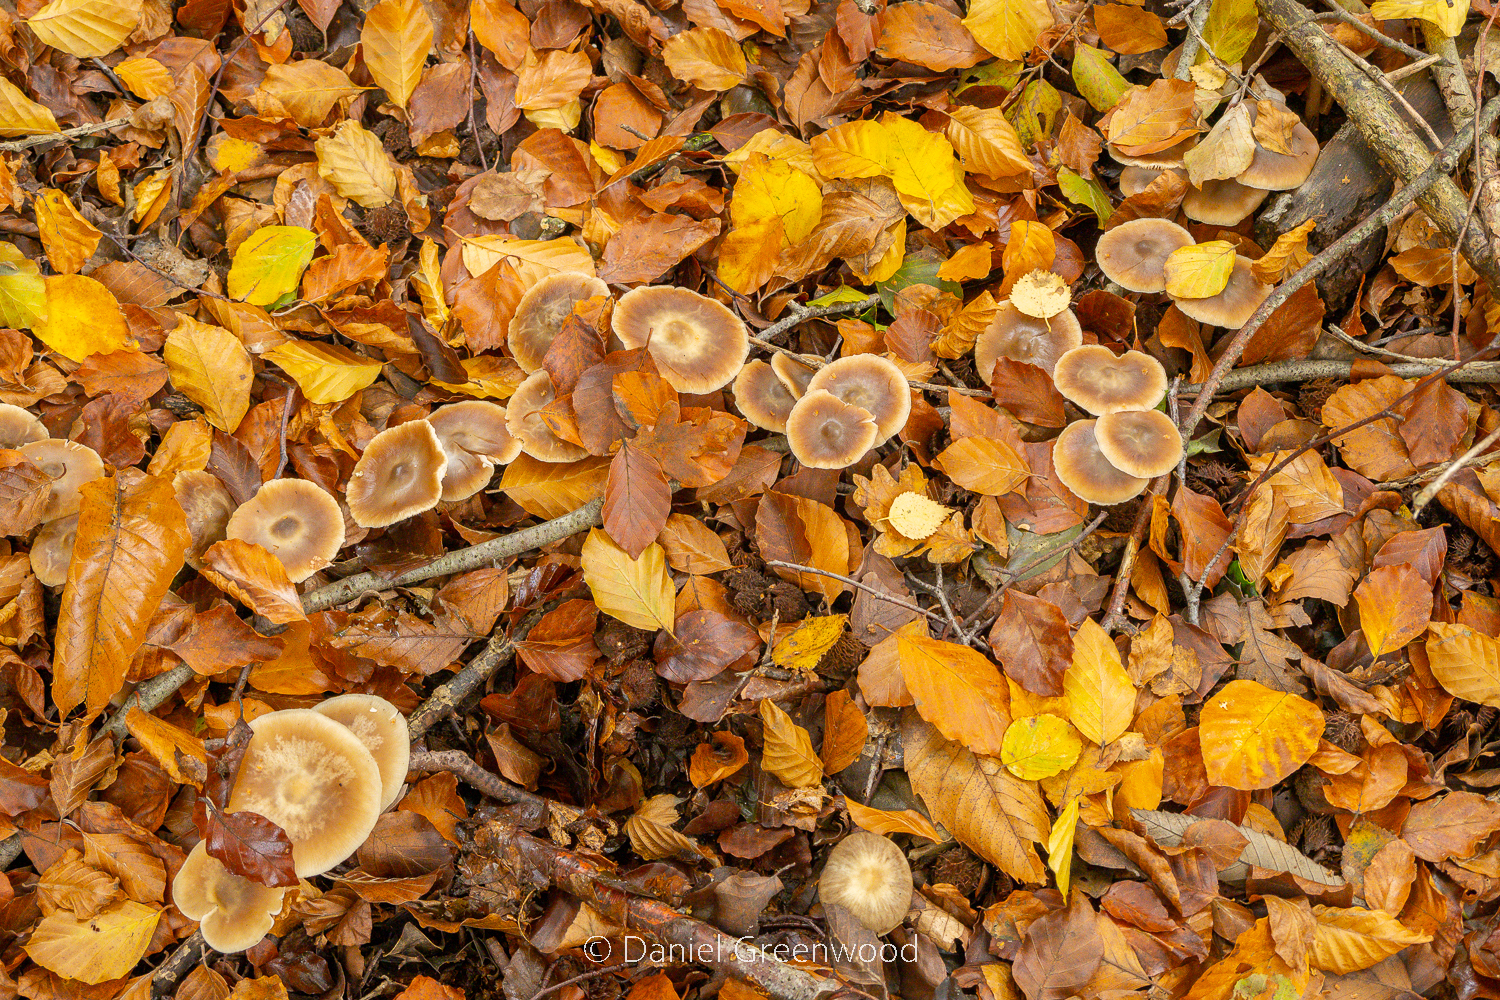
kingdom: Fungi
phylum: Basidiomycota
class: Agaricomycetes
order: Agaricales
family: Omphalotaceae
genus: Rhodocollybia
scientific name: Rhodocollybia butyracea
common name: Butter cap
